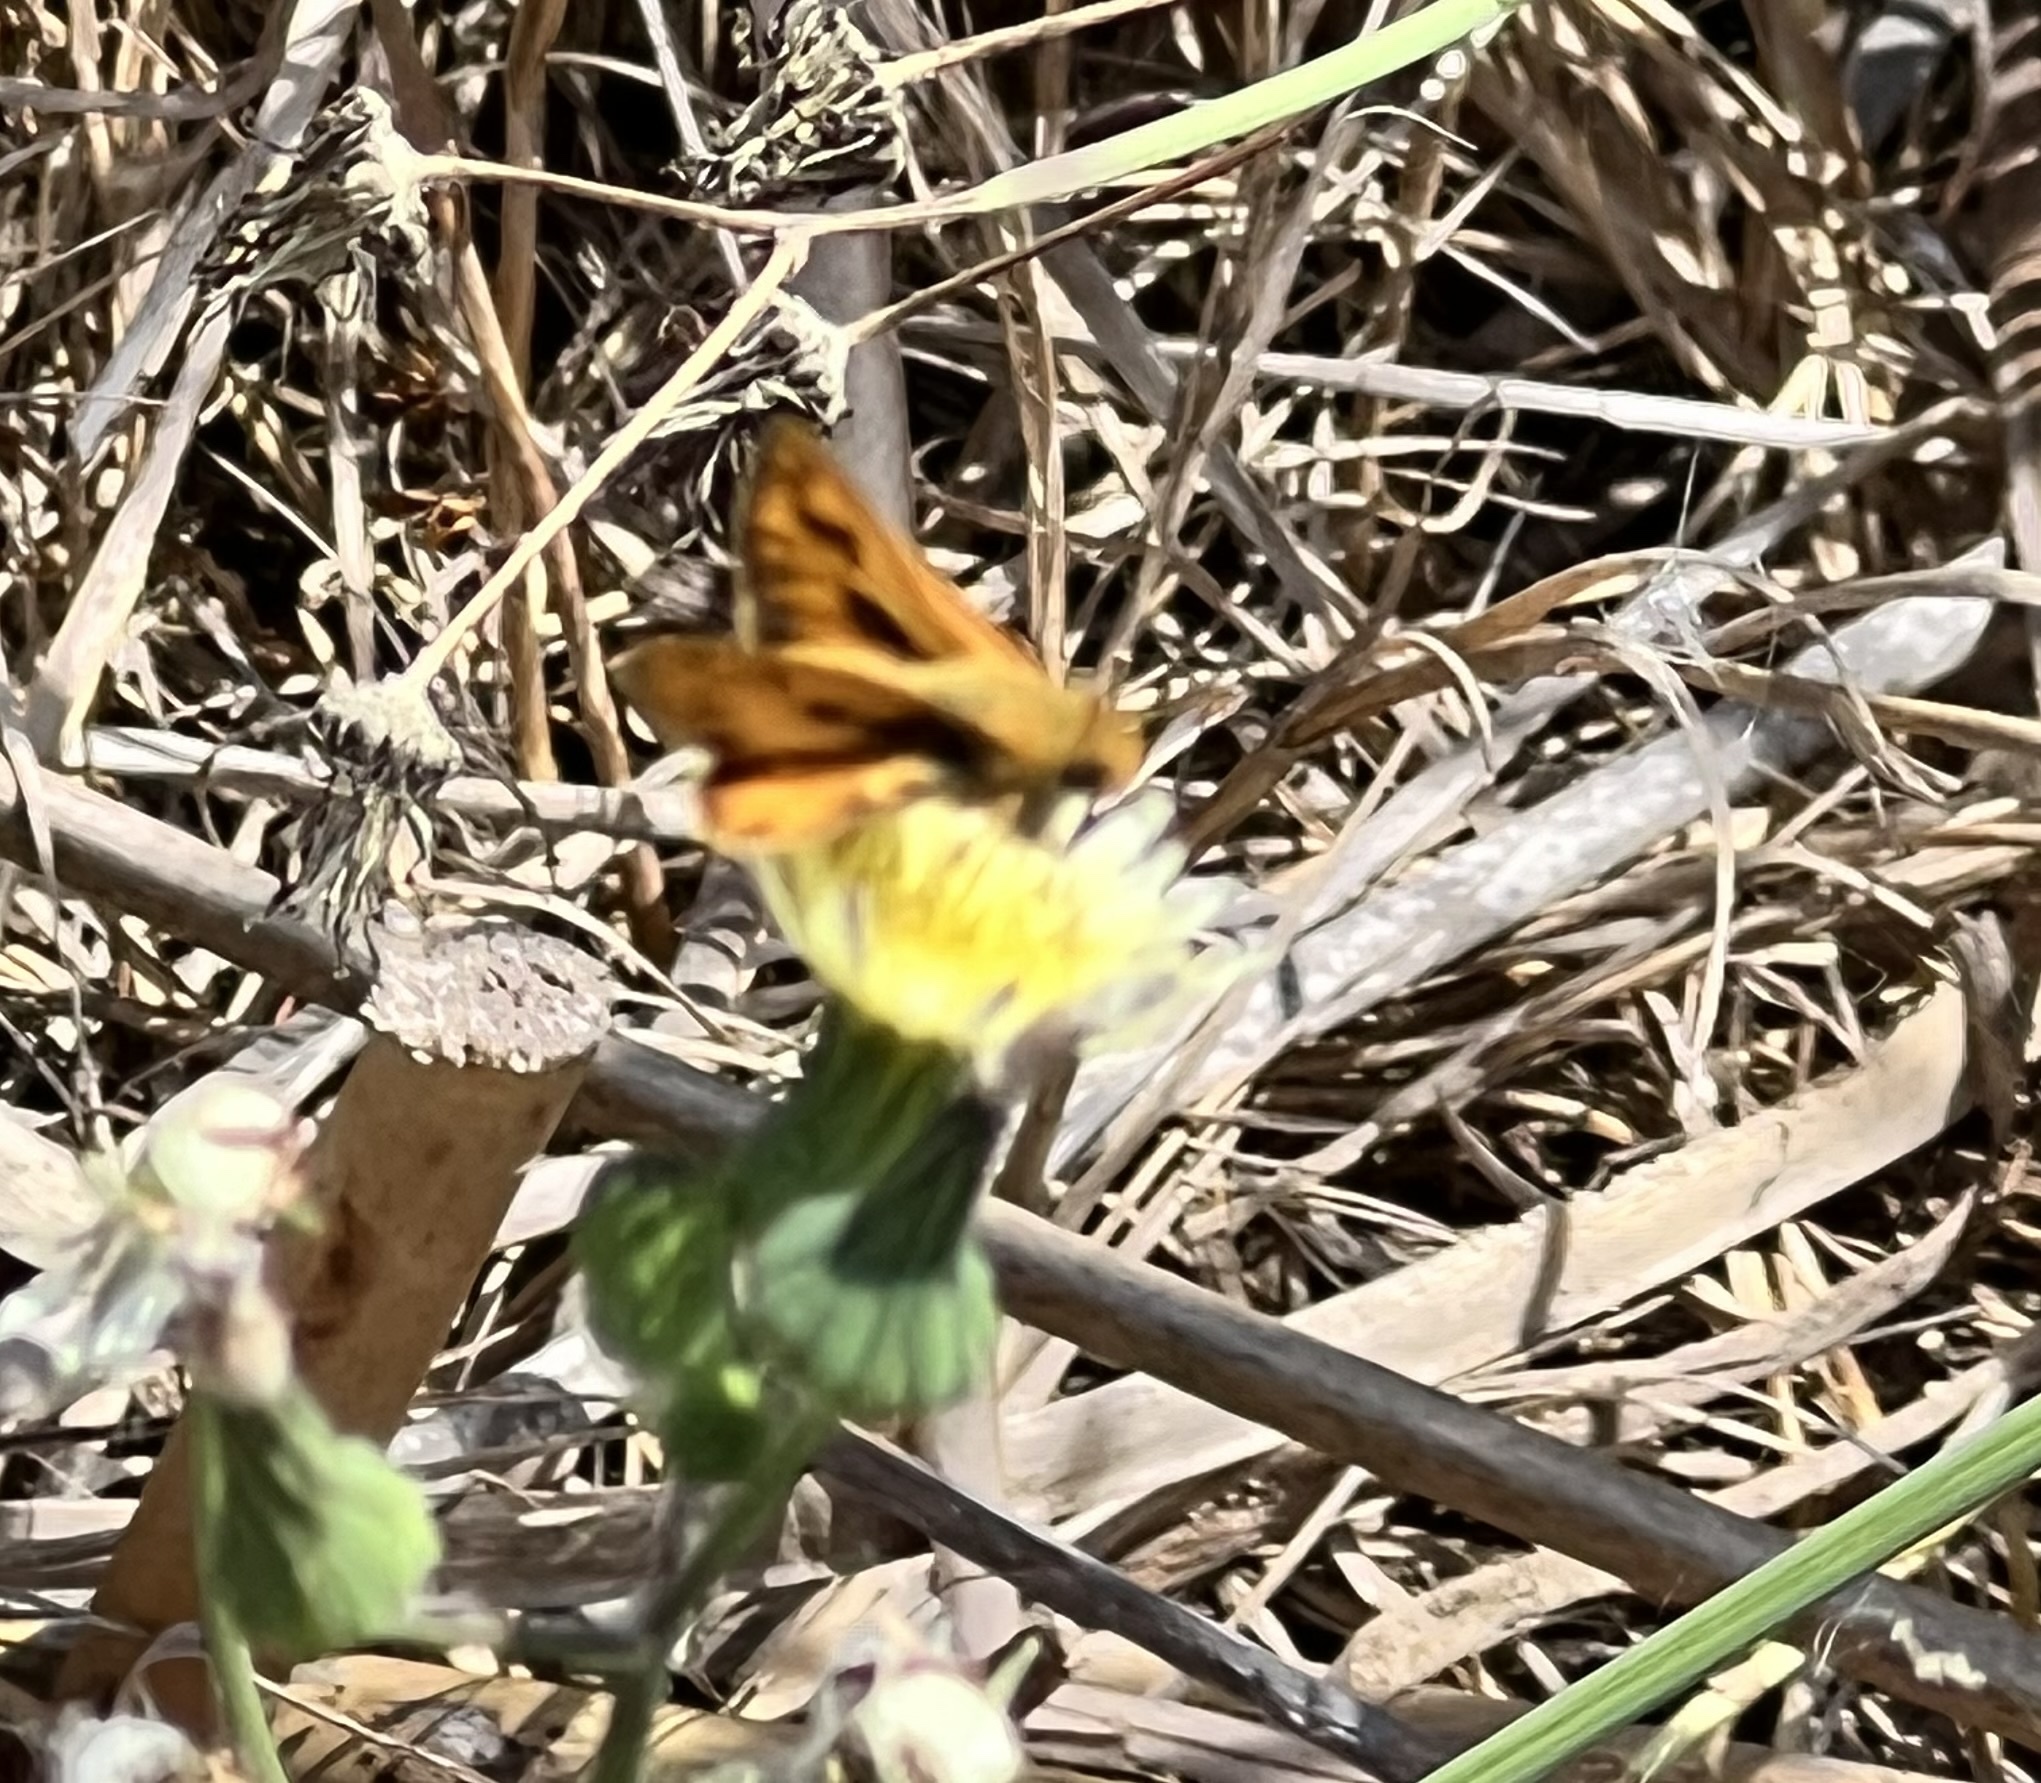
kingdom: Animalia
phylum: Arthropoda
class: Insecta
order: Lepidoptera
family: Hesperiidae
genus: Hylephila
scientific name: Hylephila phyleus
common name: Fiery skipper
